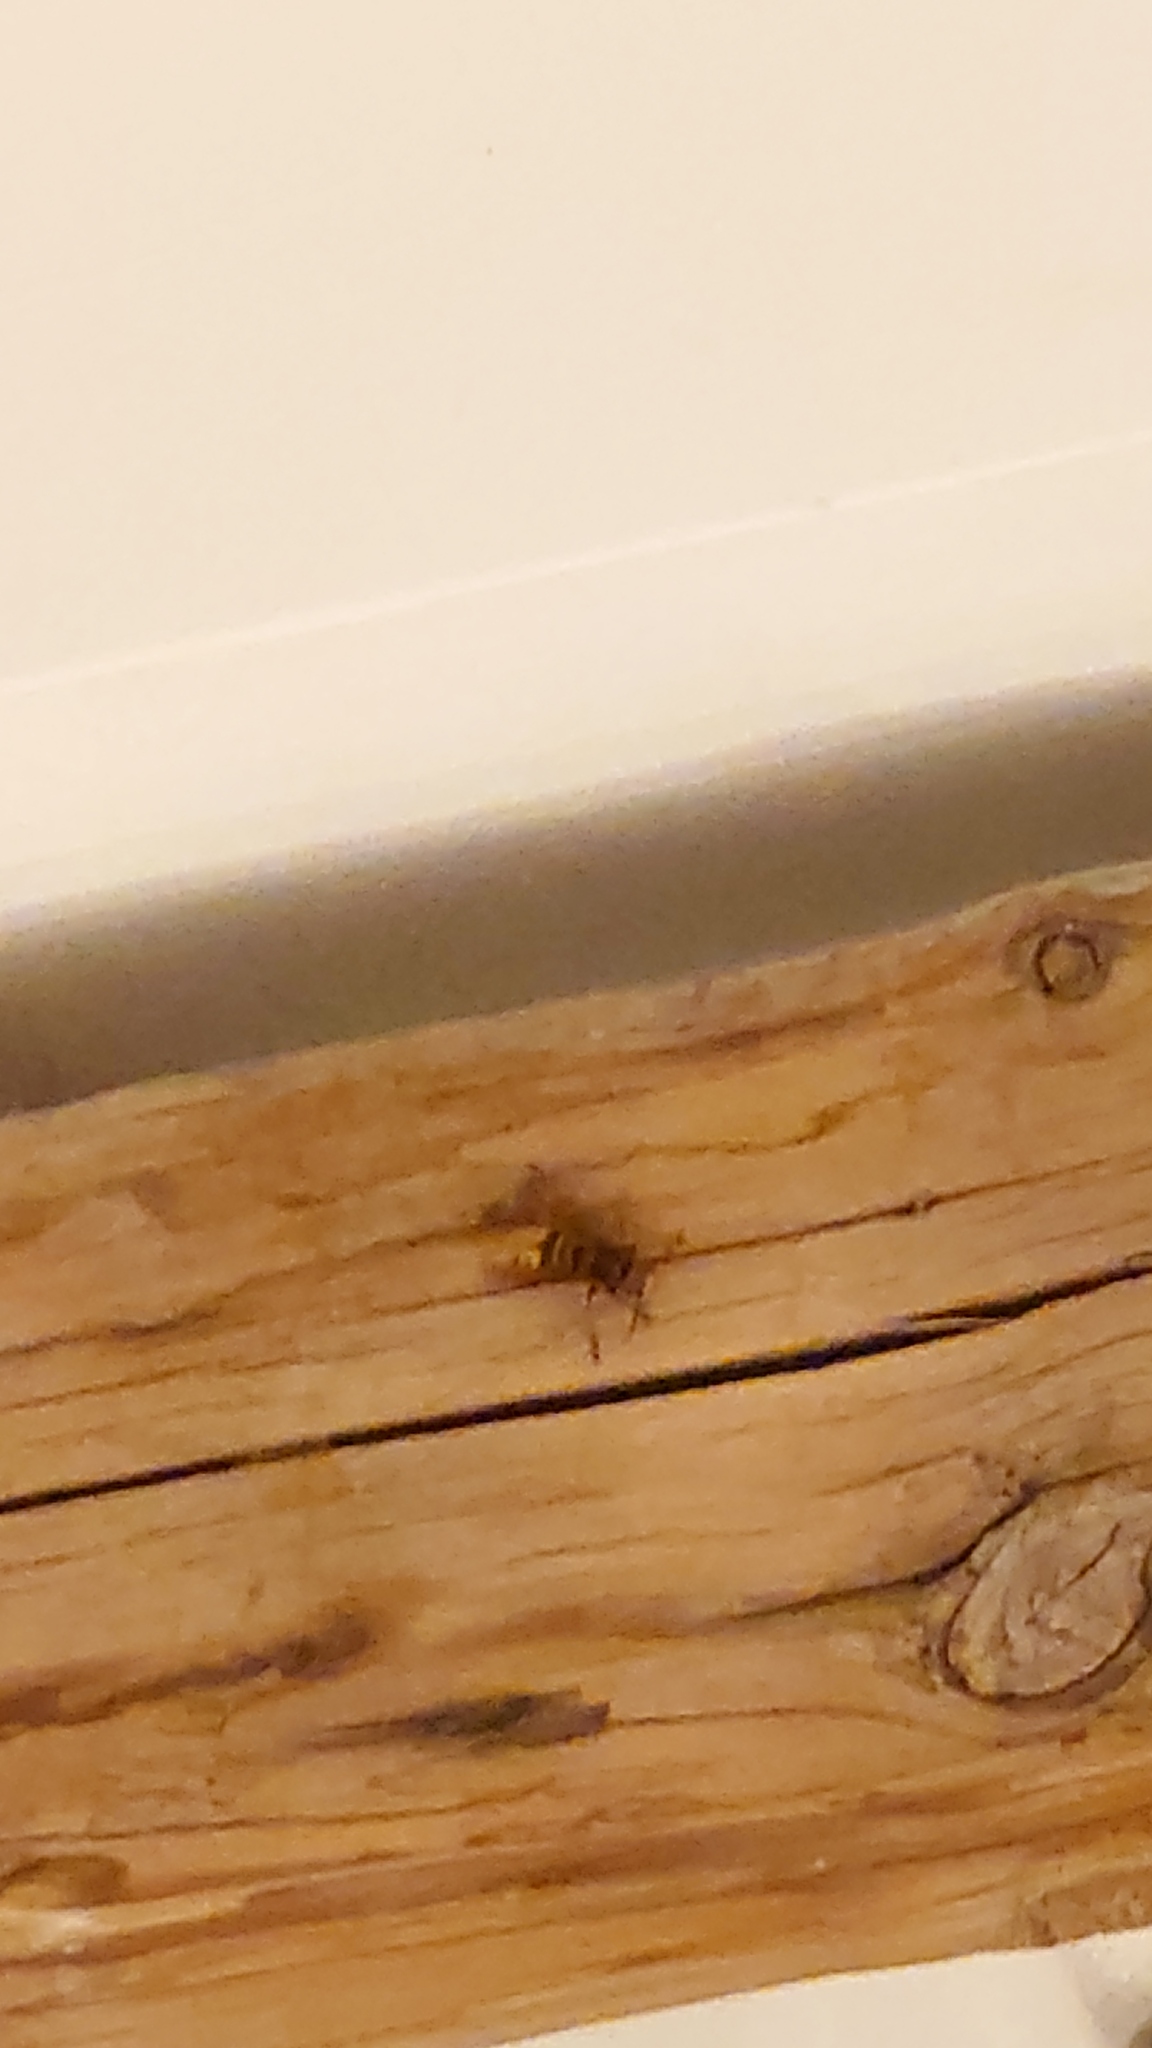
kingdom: Animalia
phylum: Arthropoda
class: Insecta
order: Hymenoptera
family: Vespidae
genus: Vespa
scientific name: Vespa crabro
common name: Hornet
